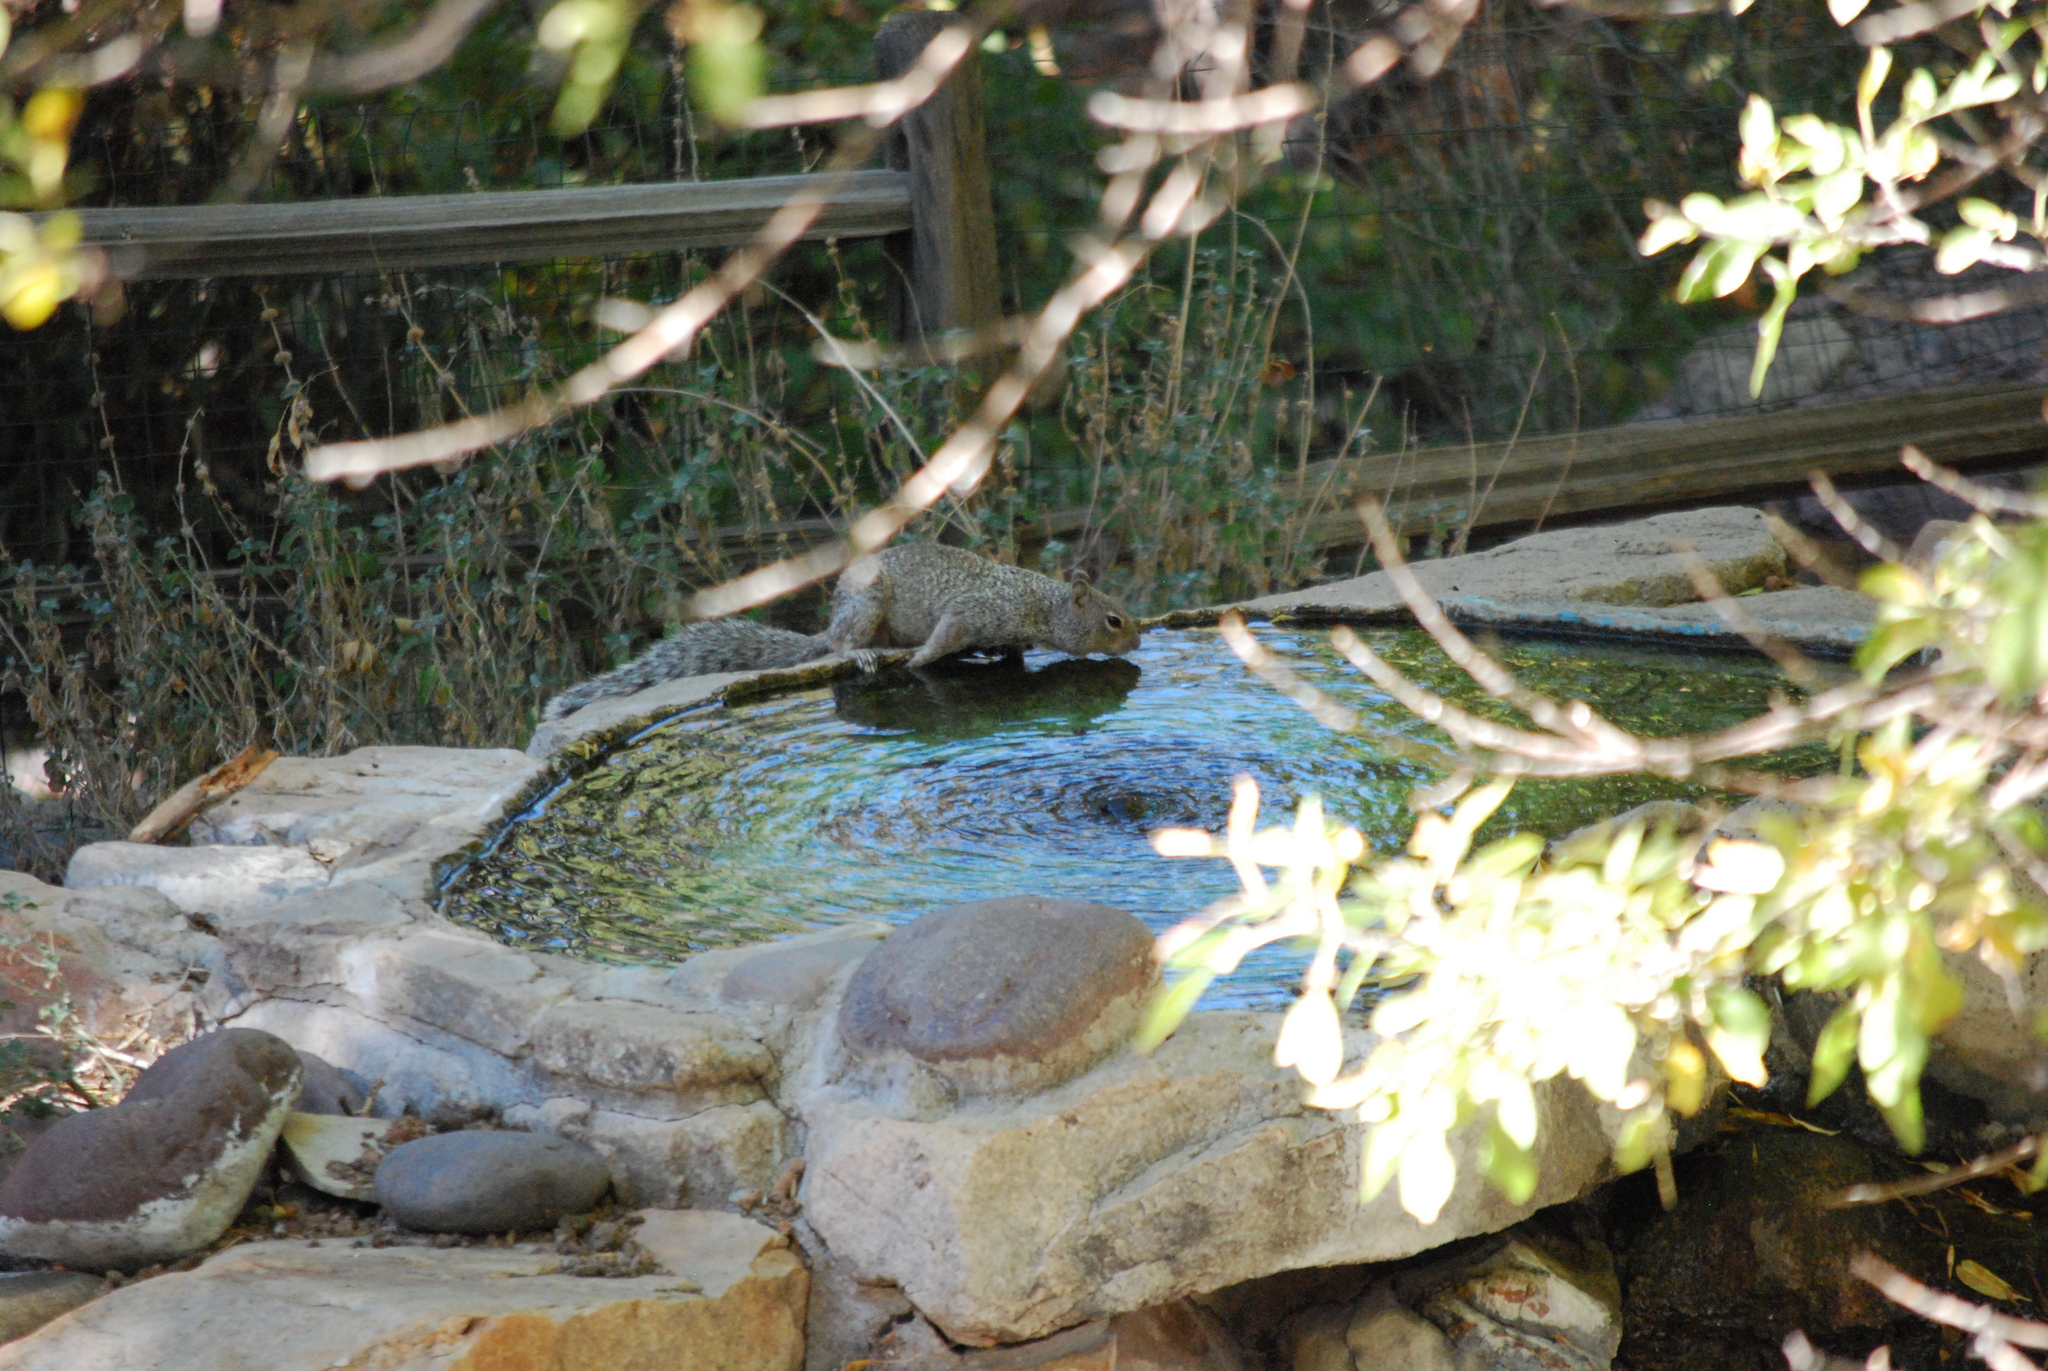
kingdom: Animalia
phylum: Chordata
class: Mammalia
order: Rodentia
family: Sciuridae
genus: Otospermophilus
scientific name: Otospermophilus variegatus
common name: Rock squirrel
